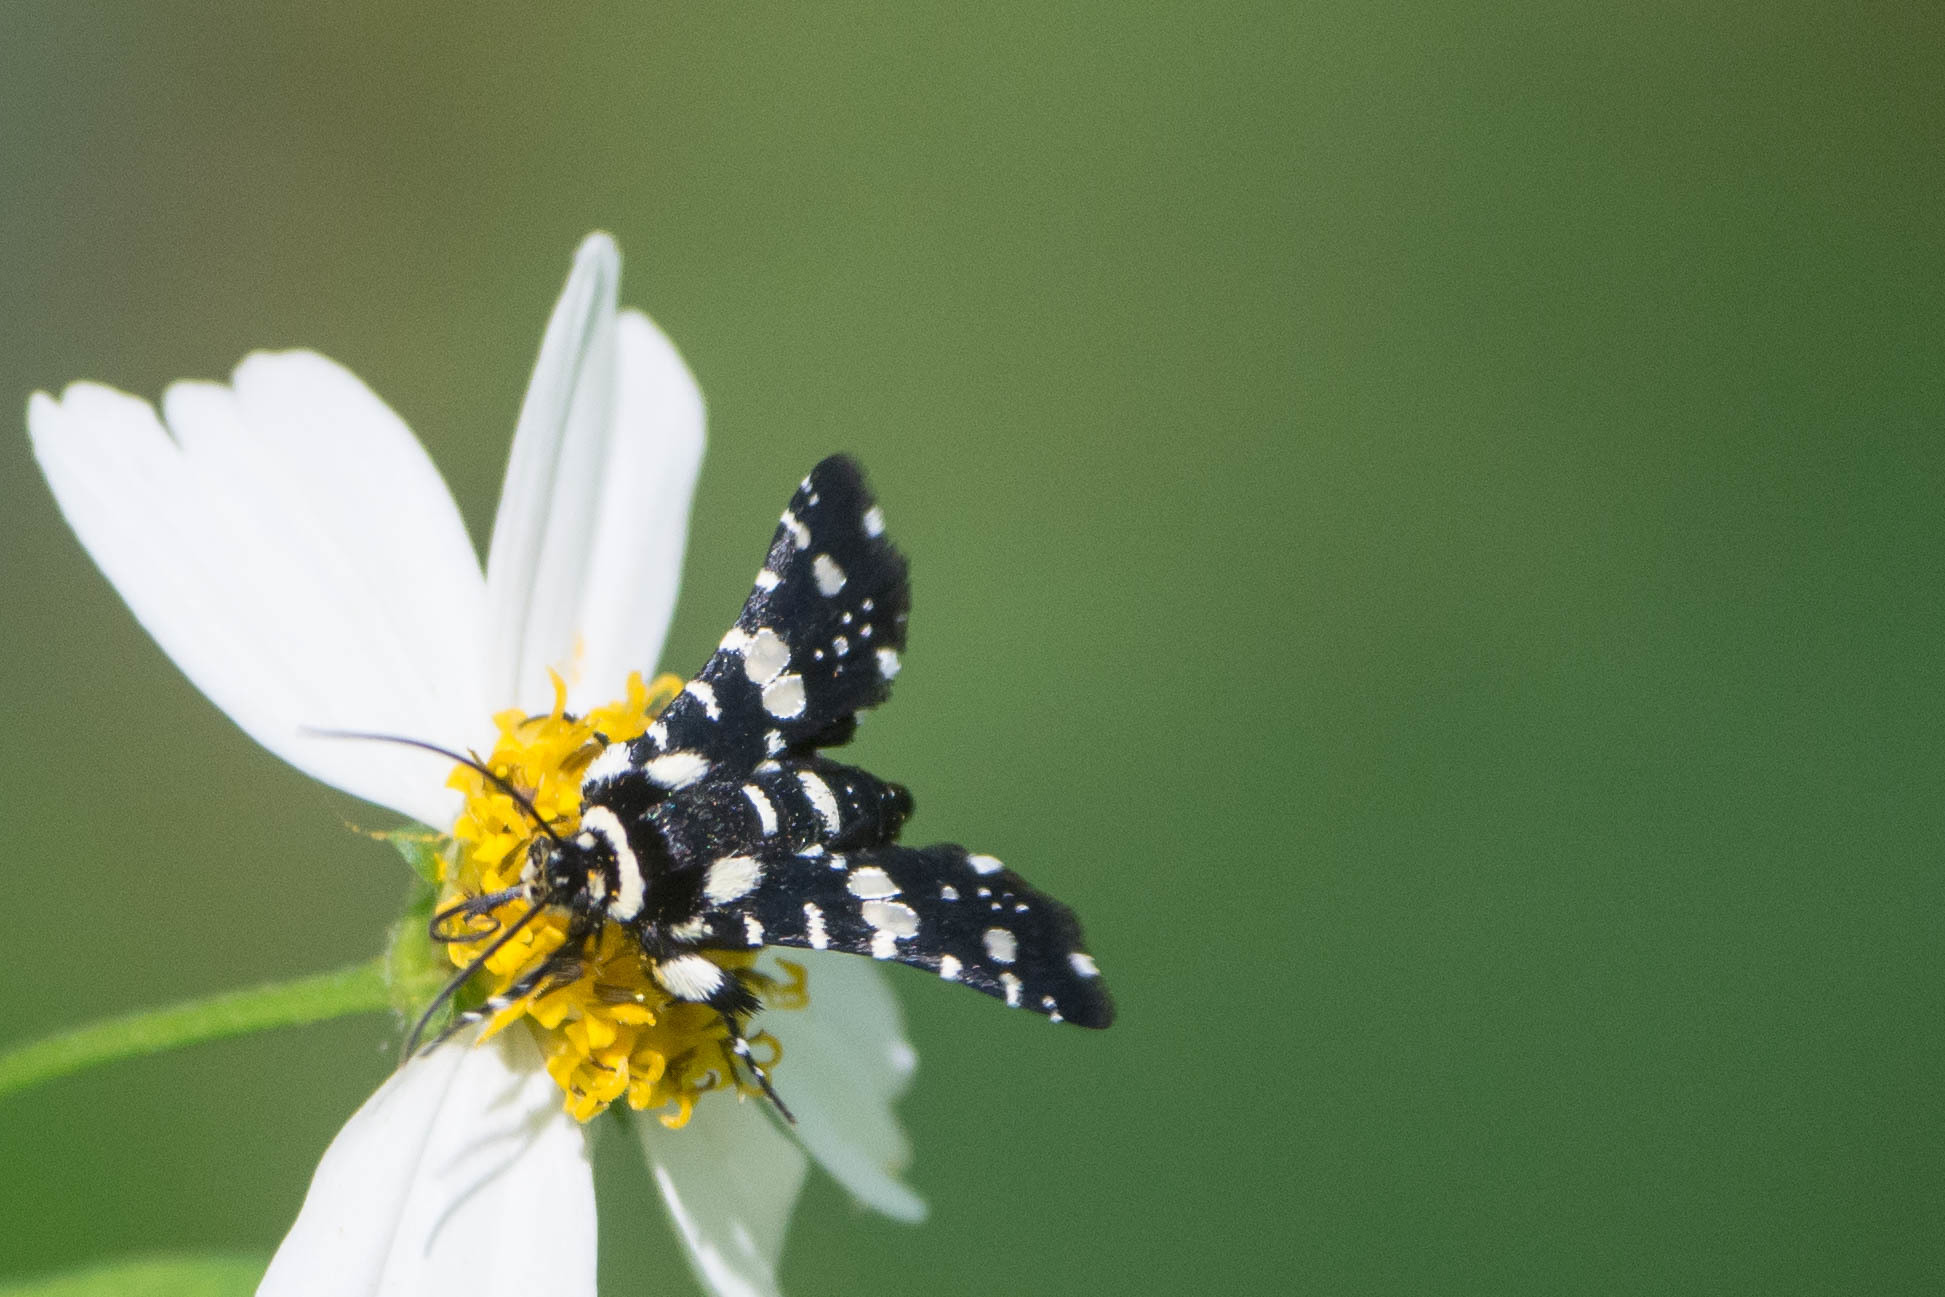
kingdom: Animalia
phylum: Arthropoda
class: Insecta
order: Lepidoptera
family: Thyrididae
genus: Pseudothyris
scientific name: Pseudothyris sepulchralis
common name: Mournful thyris moth
